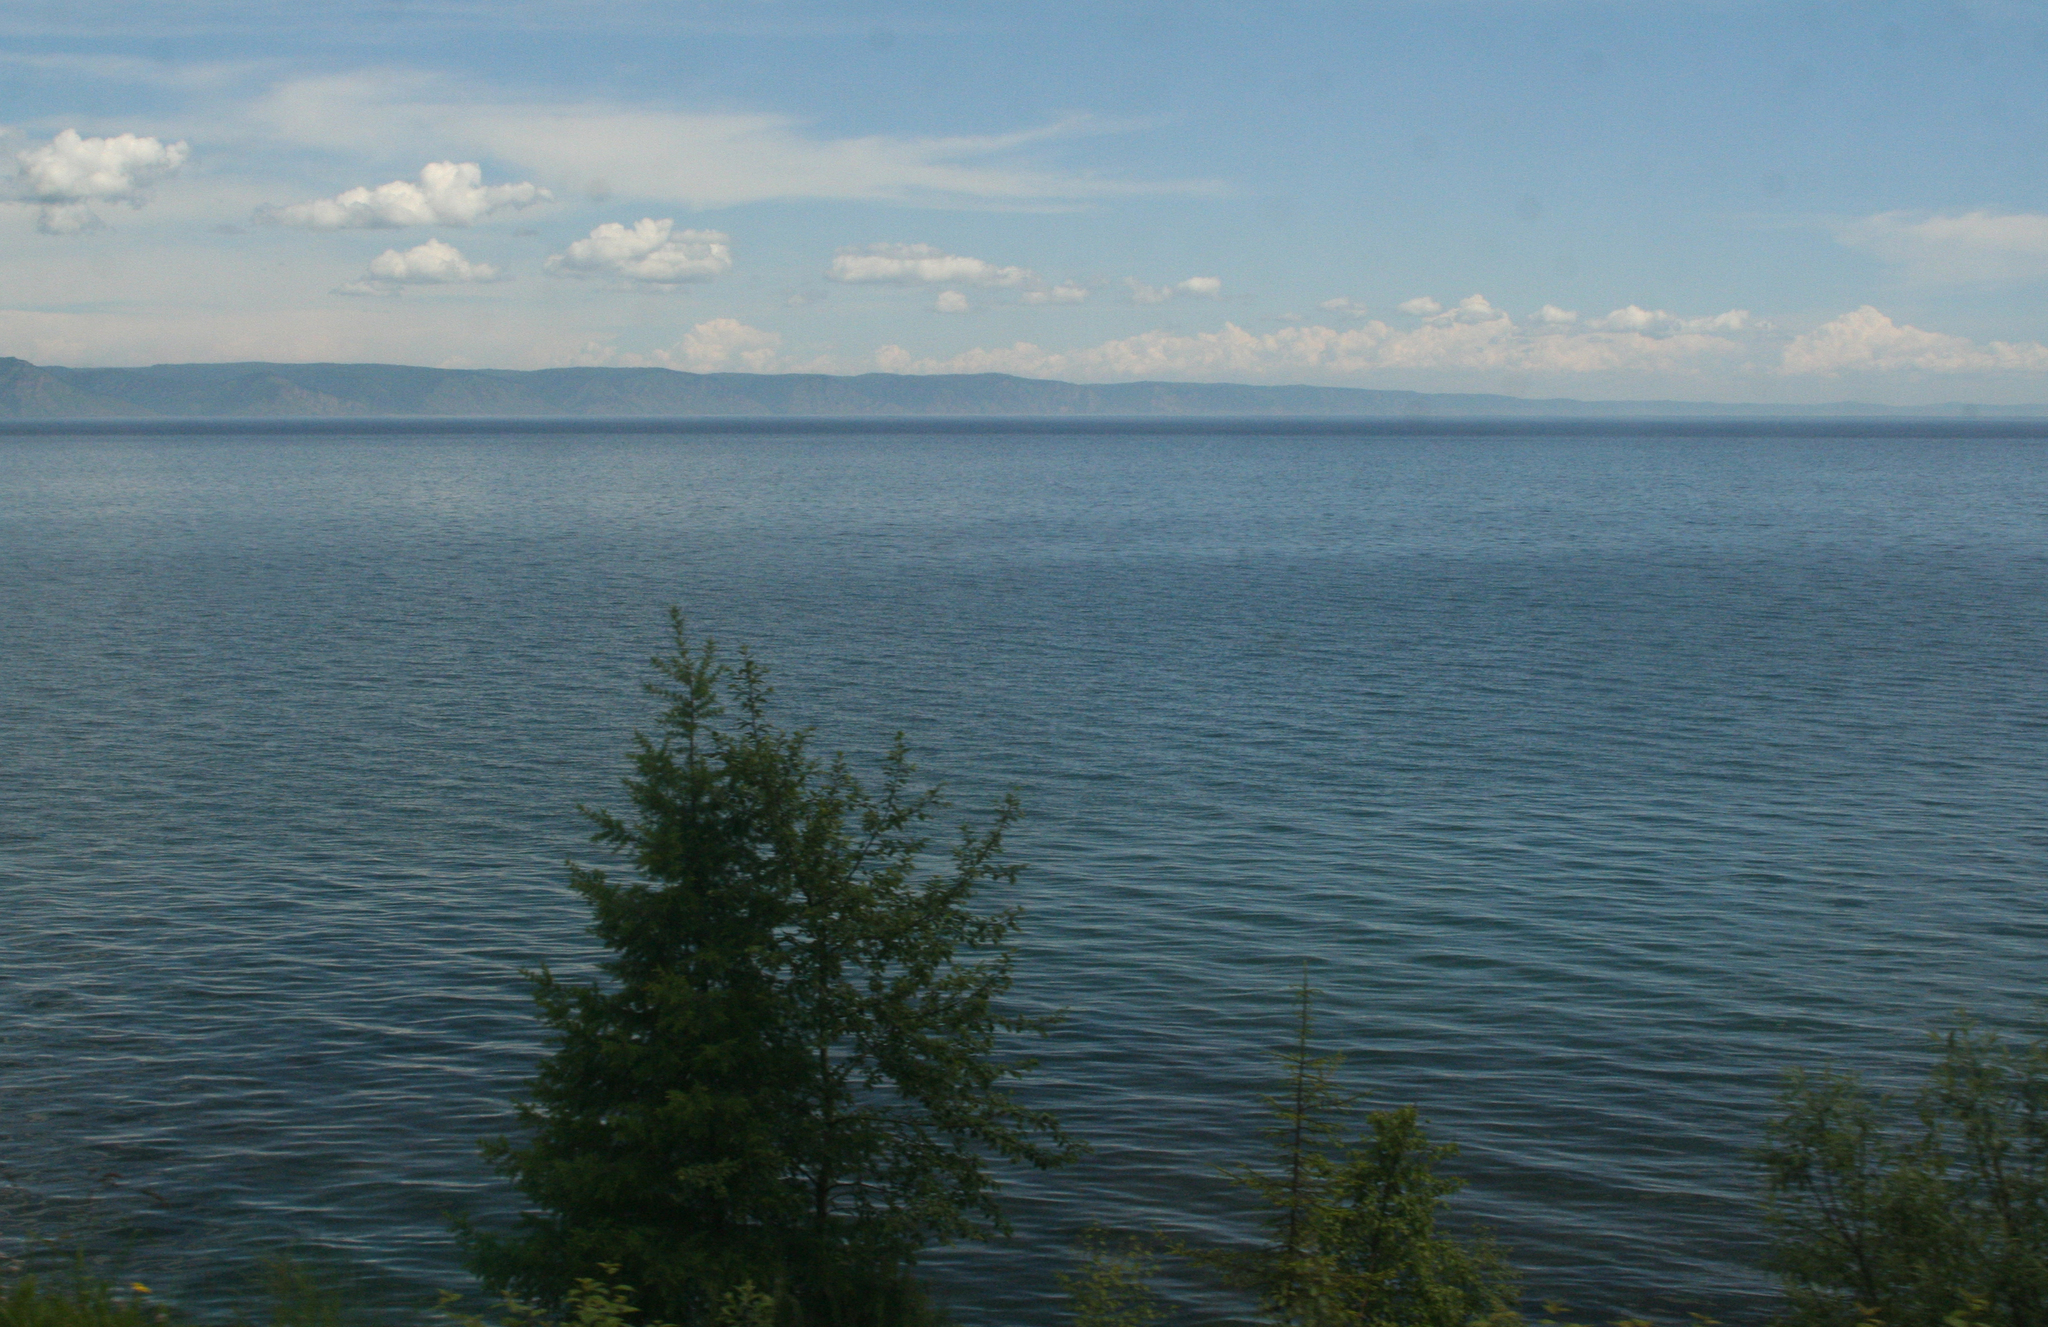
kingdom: Plantae
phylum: Tracheophyta
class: Pinopsida
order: Pinales
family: Pinaceae
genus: Larix
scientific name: Larix sibirica
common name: Siberian larch
